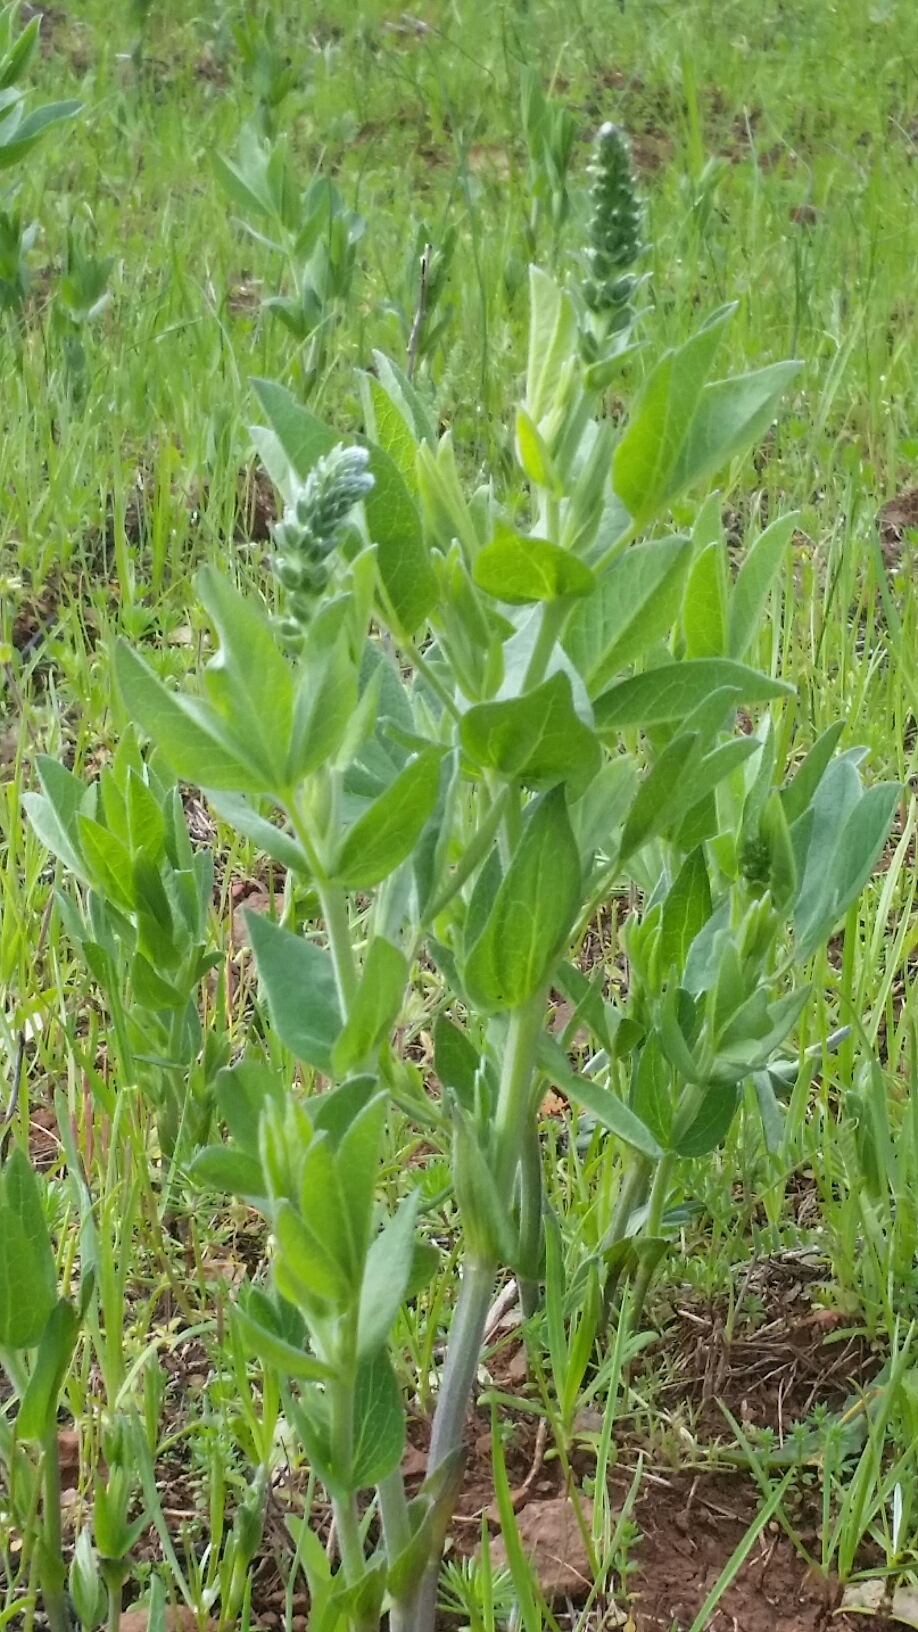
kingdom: Plantae
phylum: Tracheophyta
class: Magnoliopsida
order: Fabales
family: Fabaceae
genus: Thermopsis
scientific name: Thermopsis californica
